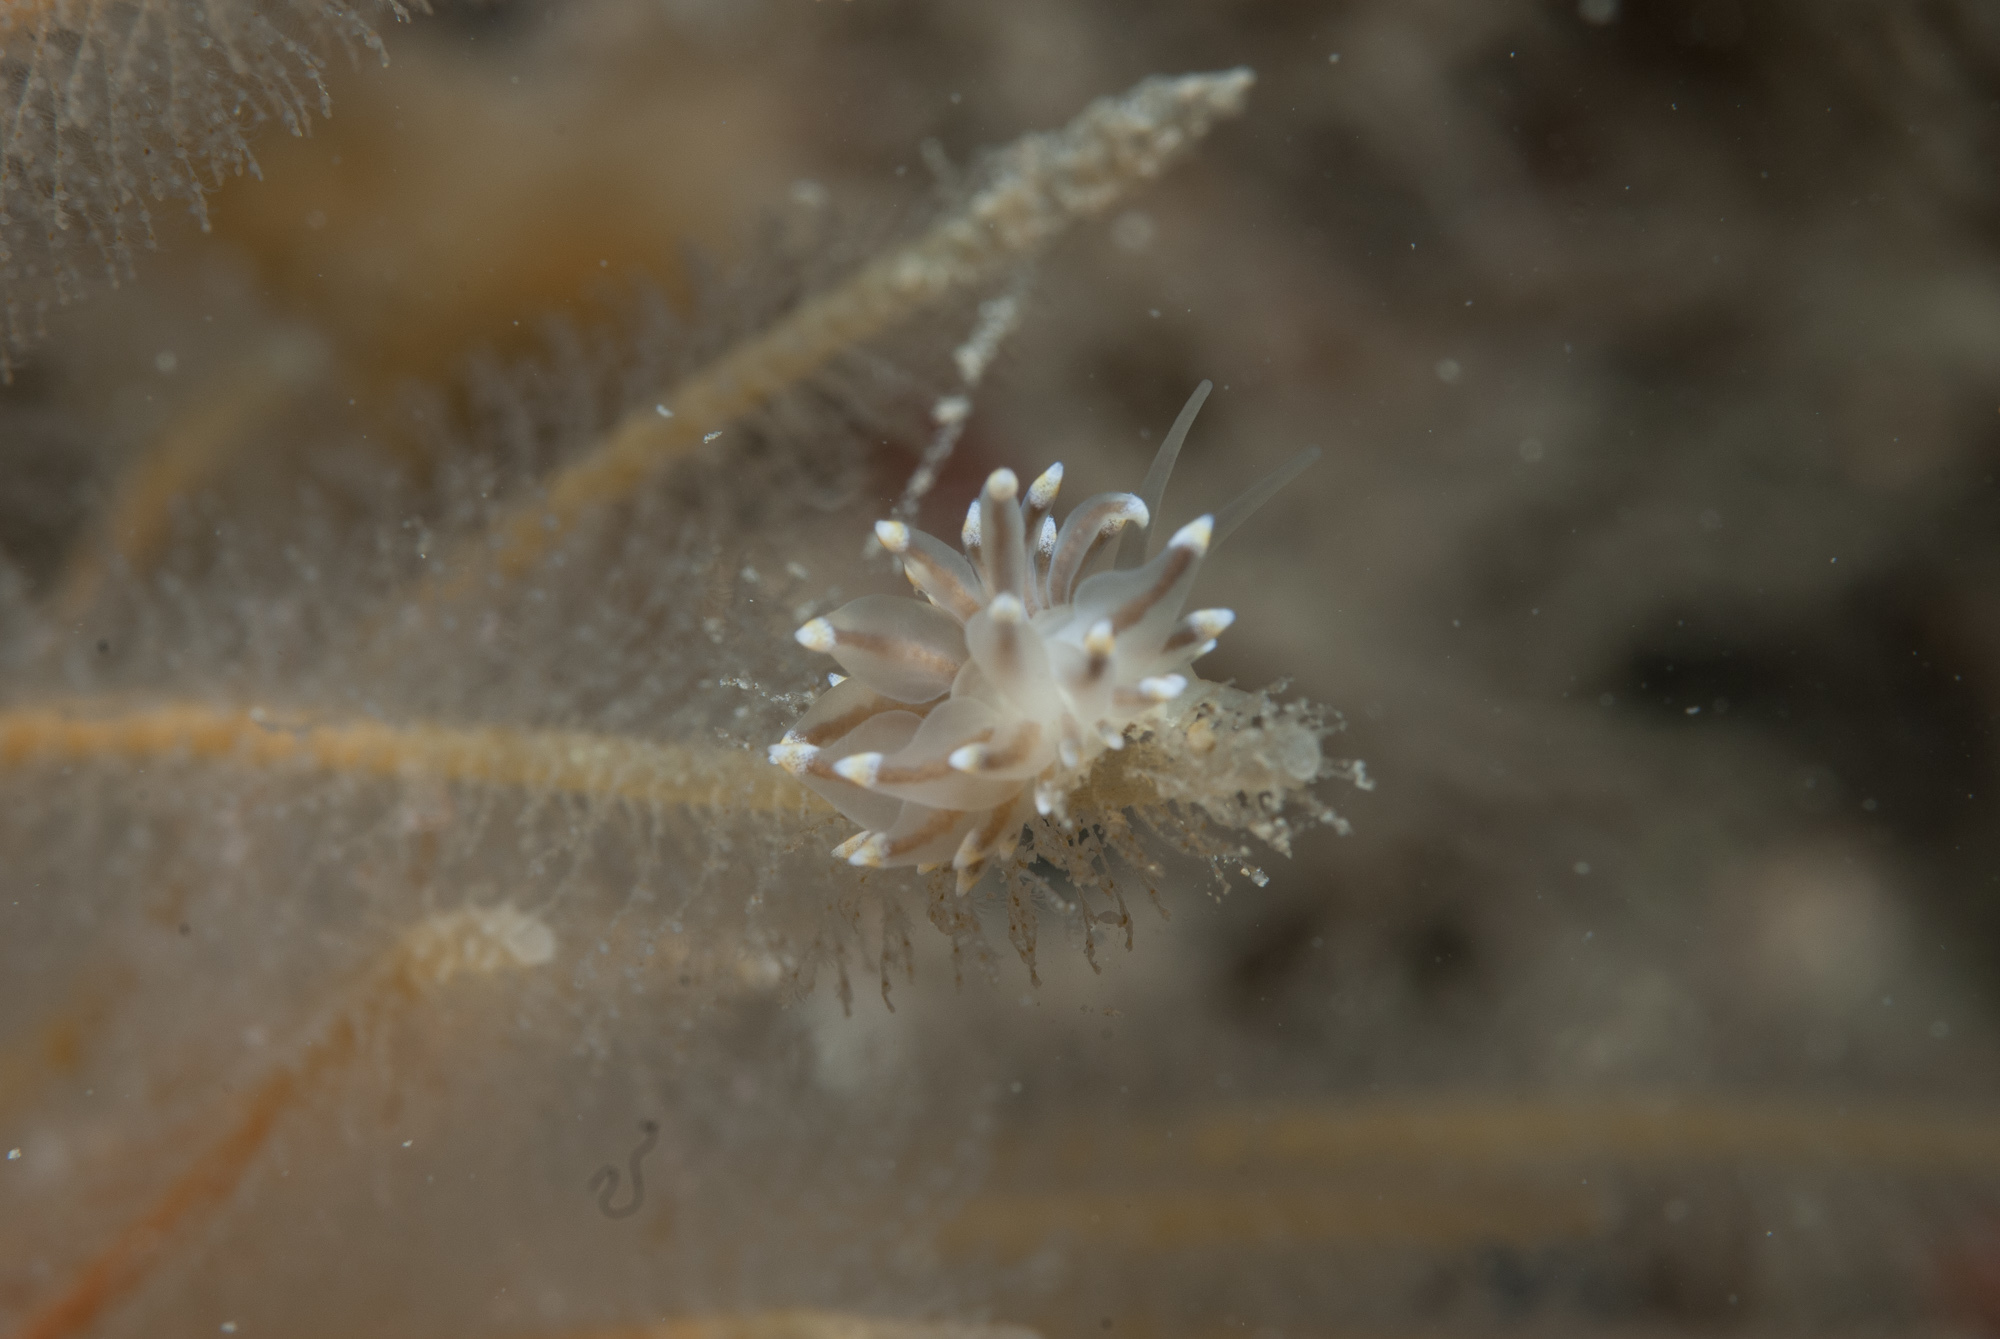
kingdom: Animalia
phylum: Mollusca
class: Gastropoda
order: Nudibranchia
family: Eubranchidae
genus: Eubranchus
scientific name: Eubranchus tricolor
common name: Painted balloon aeolis
